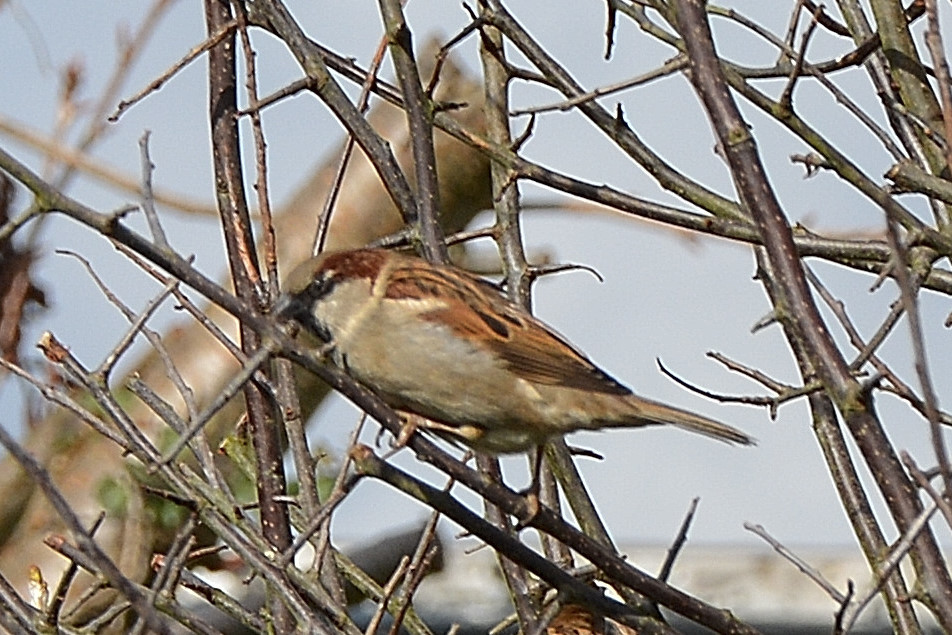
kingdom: Animalia
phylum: Chordata
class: Aves
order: Passeriformes
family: Passeridae
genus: Passer
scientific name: Passer domesticus
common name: House sparrow
